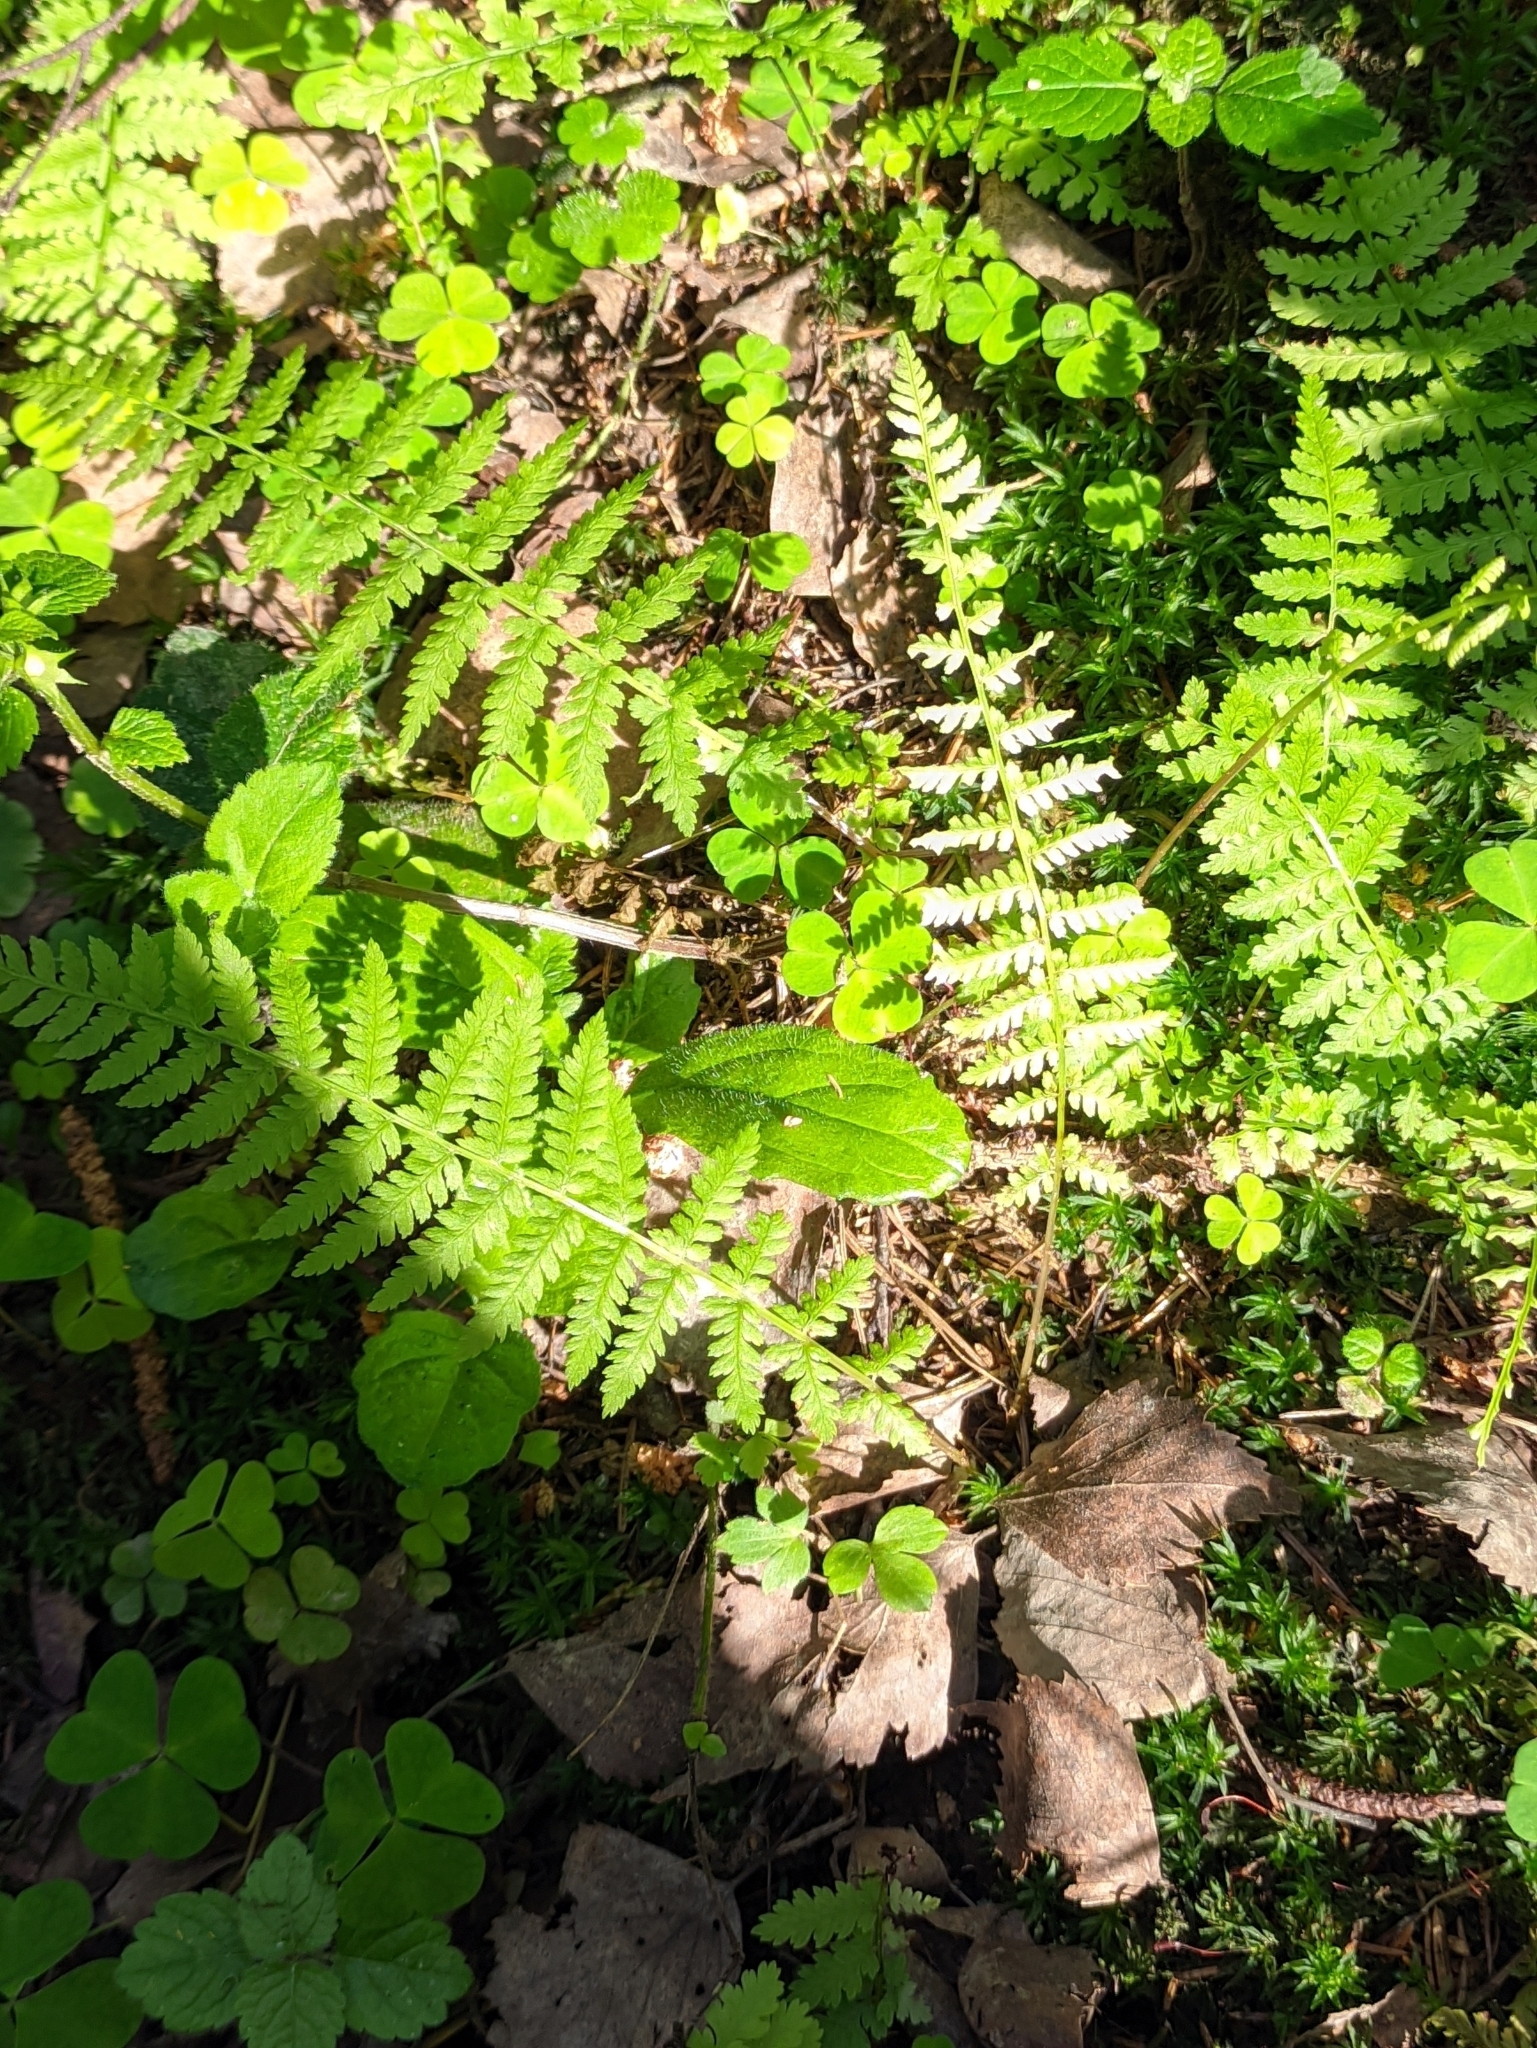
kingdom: Plantae
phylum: Tracheophyta
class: Polypodiopsida
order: Polypodiales
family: Athyriaceae
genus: Athyrium
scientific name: Athyrium filix-femina
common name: Lady fern
